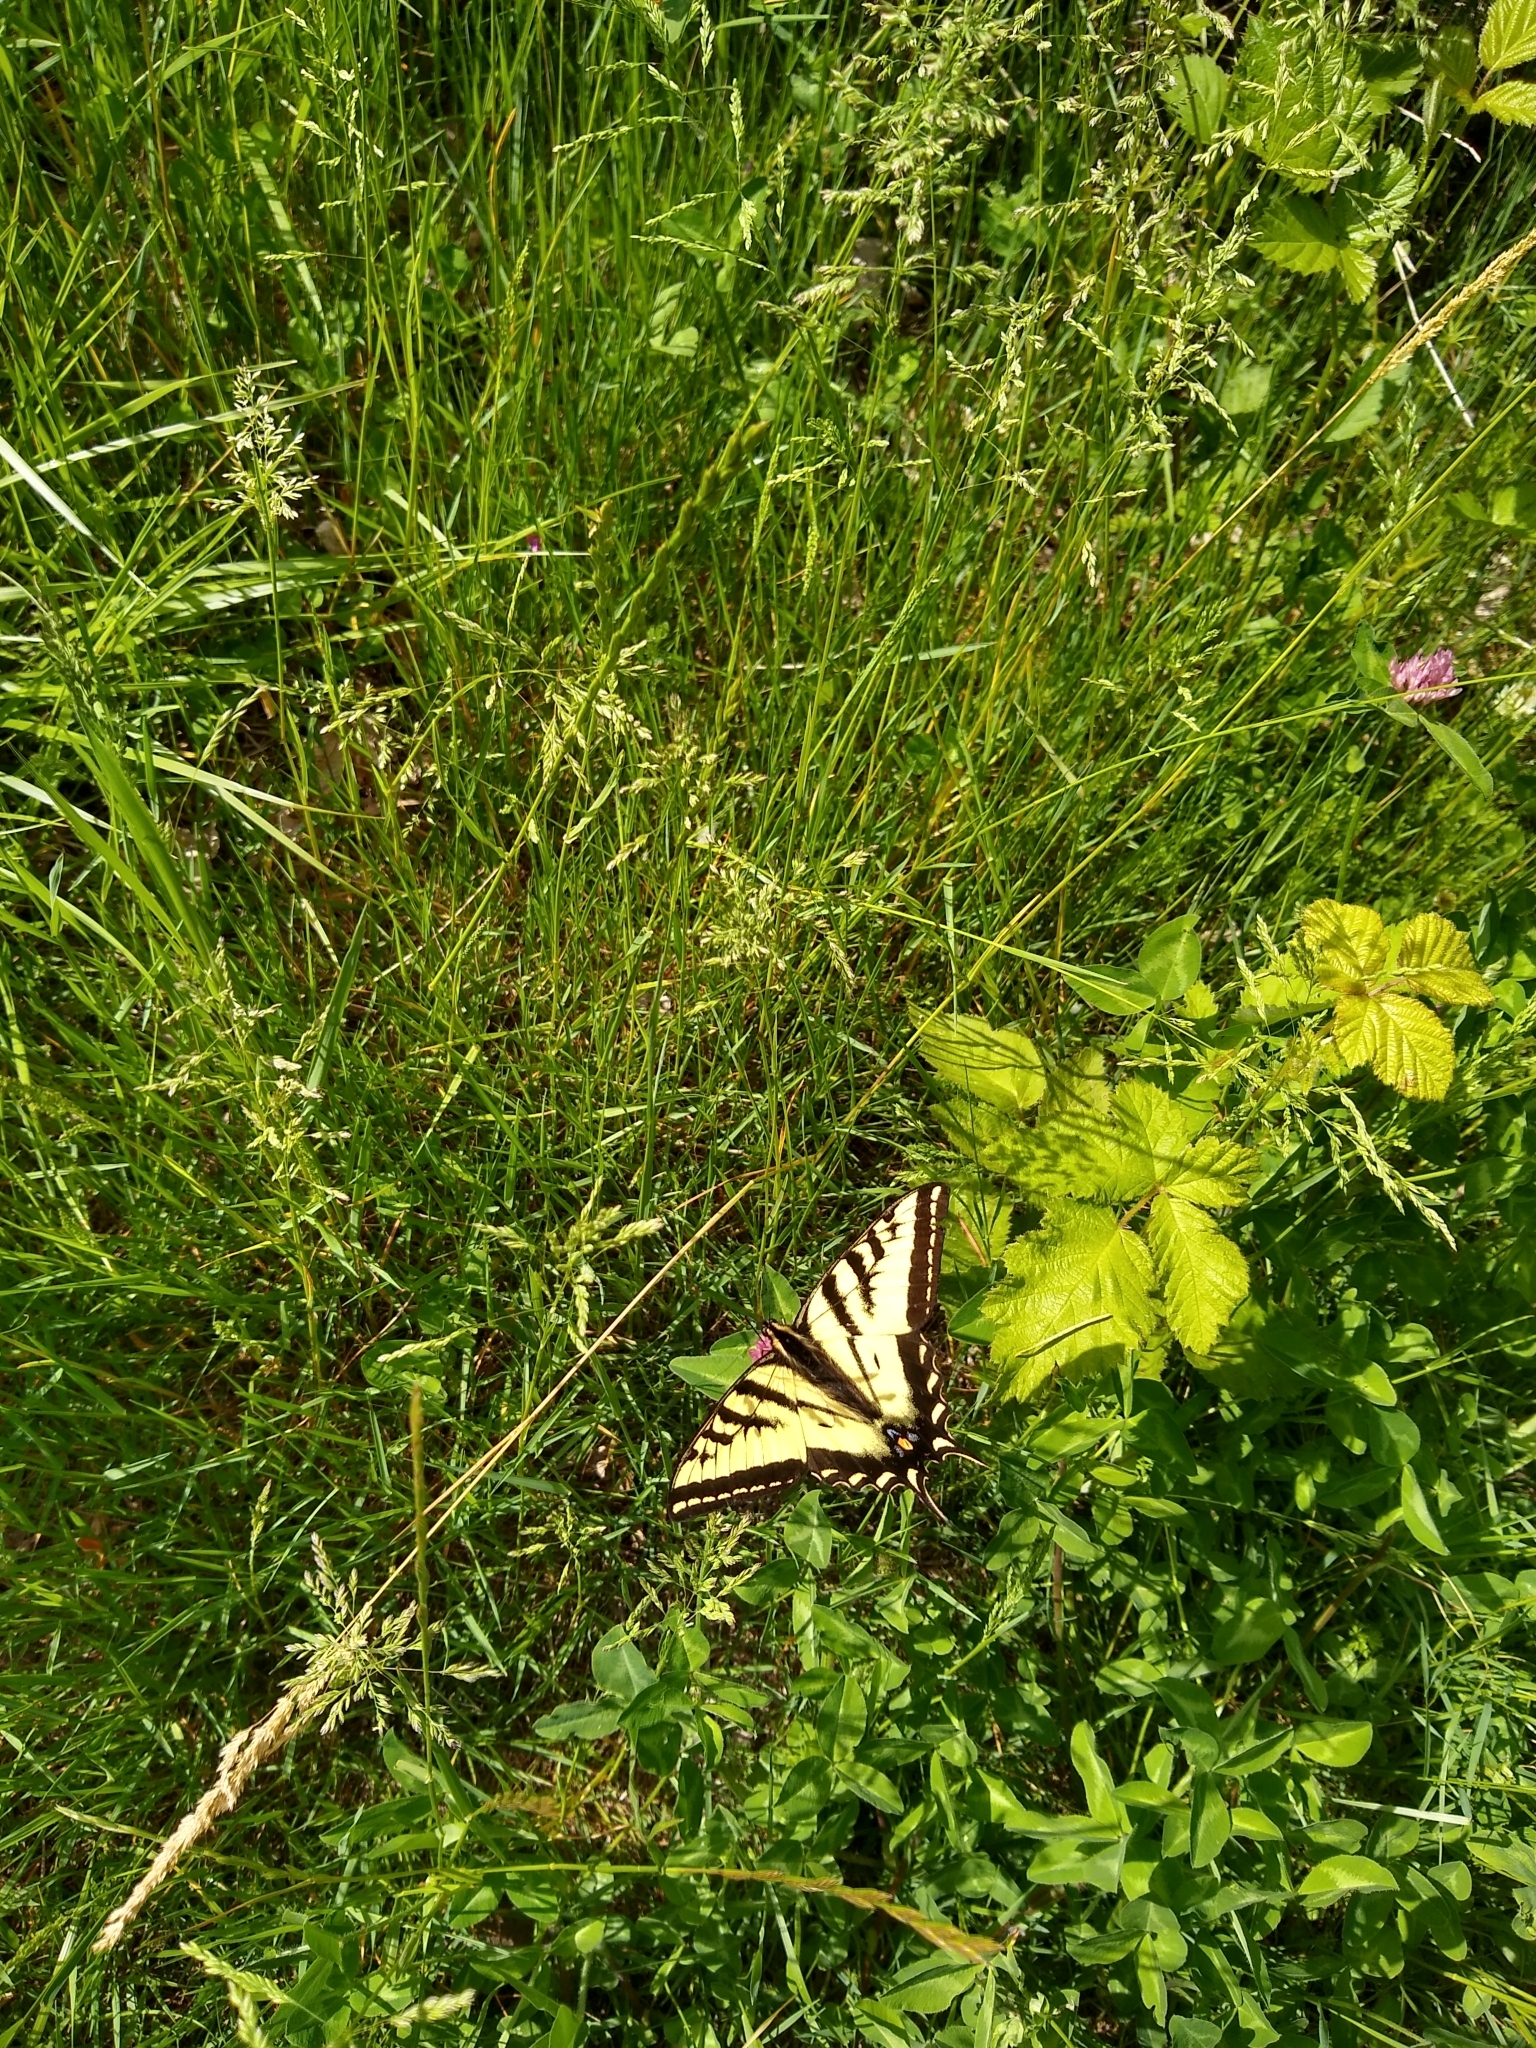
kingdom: Animalia
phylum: Arthropoda
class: Insecta
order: Lepidoptera
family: Papilionidae
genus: Papilio
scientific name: Papilio rutulus
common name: Western tiger swallowtail
